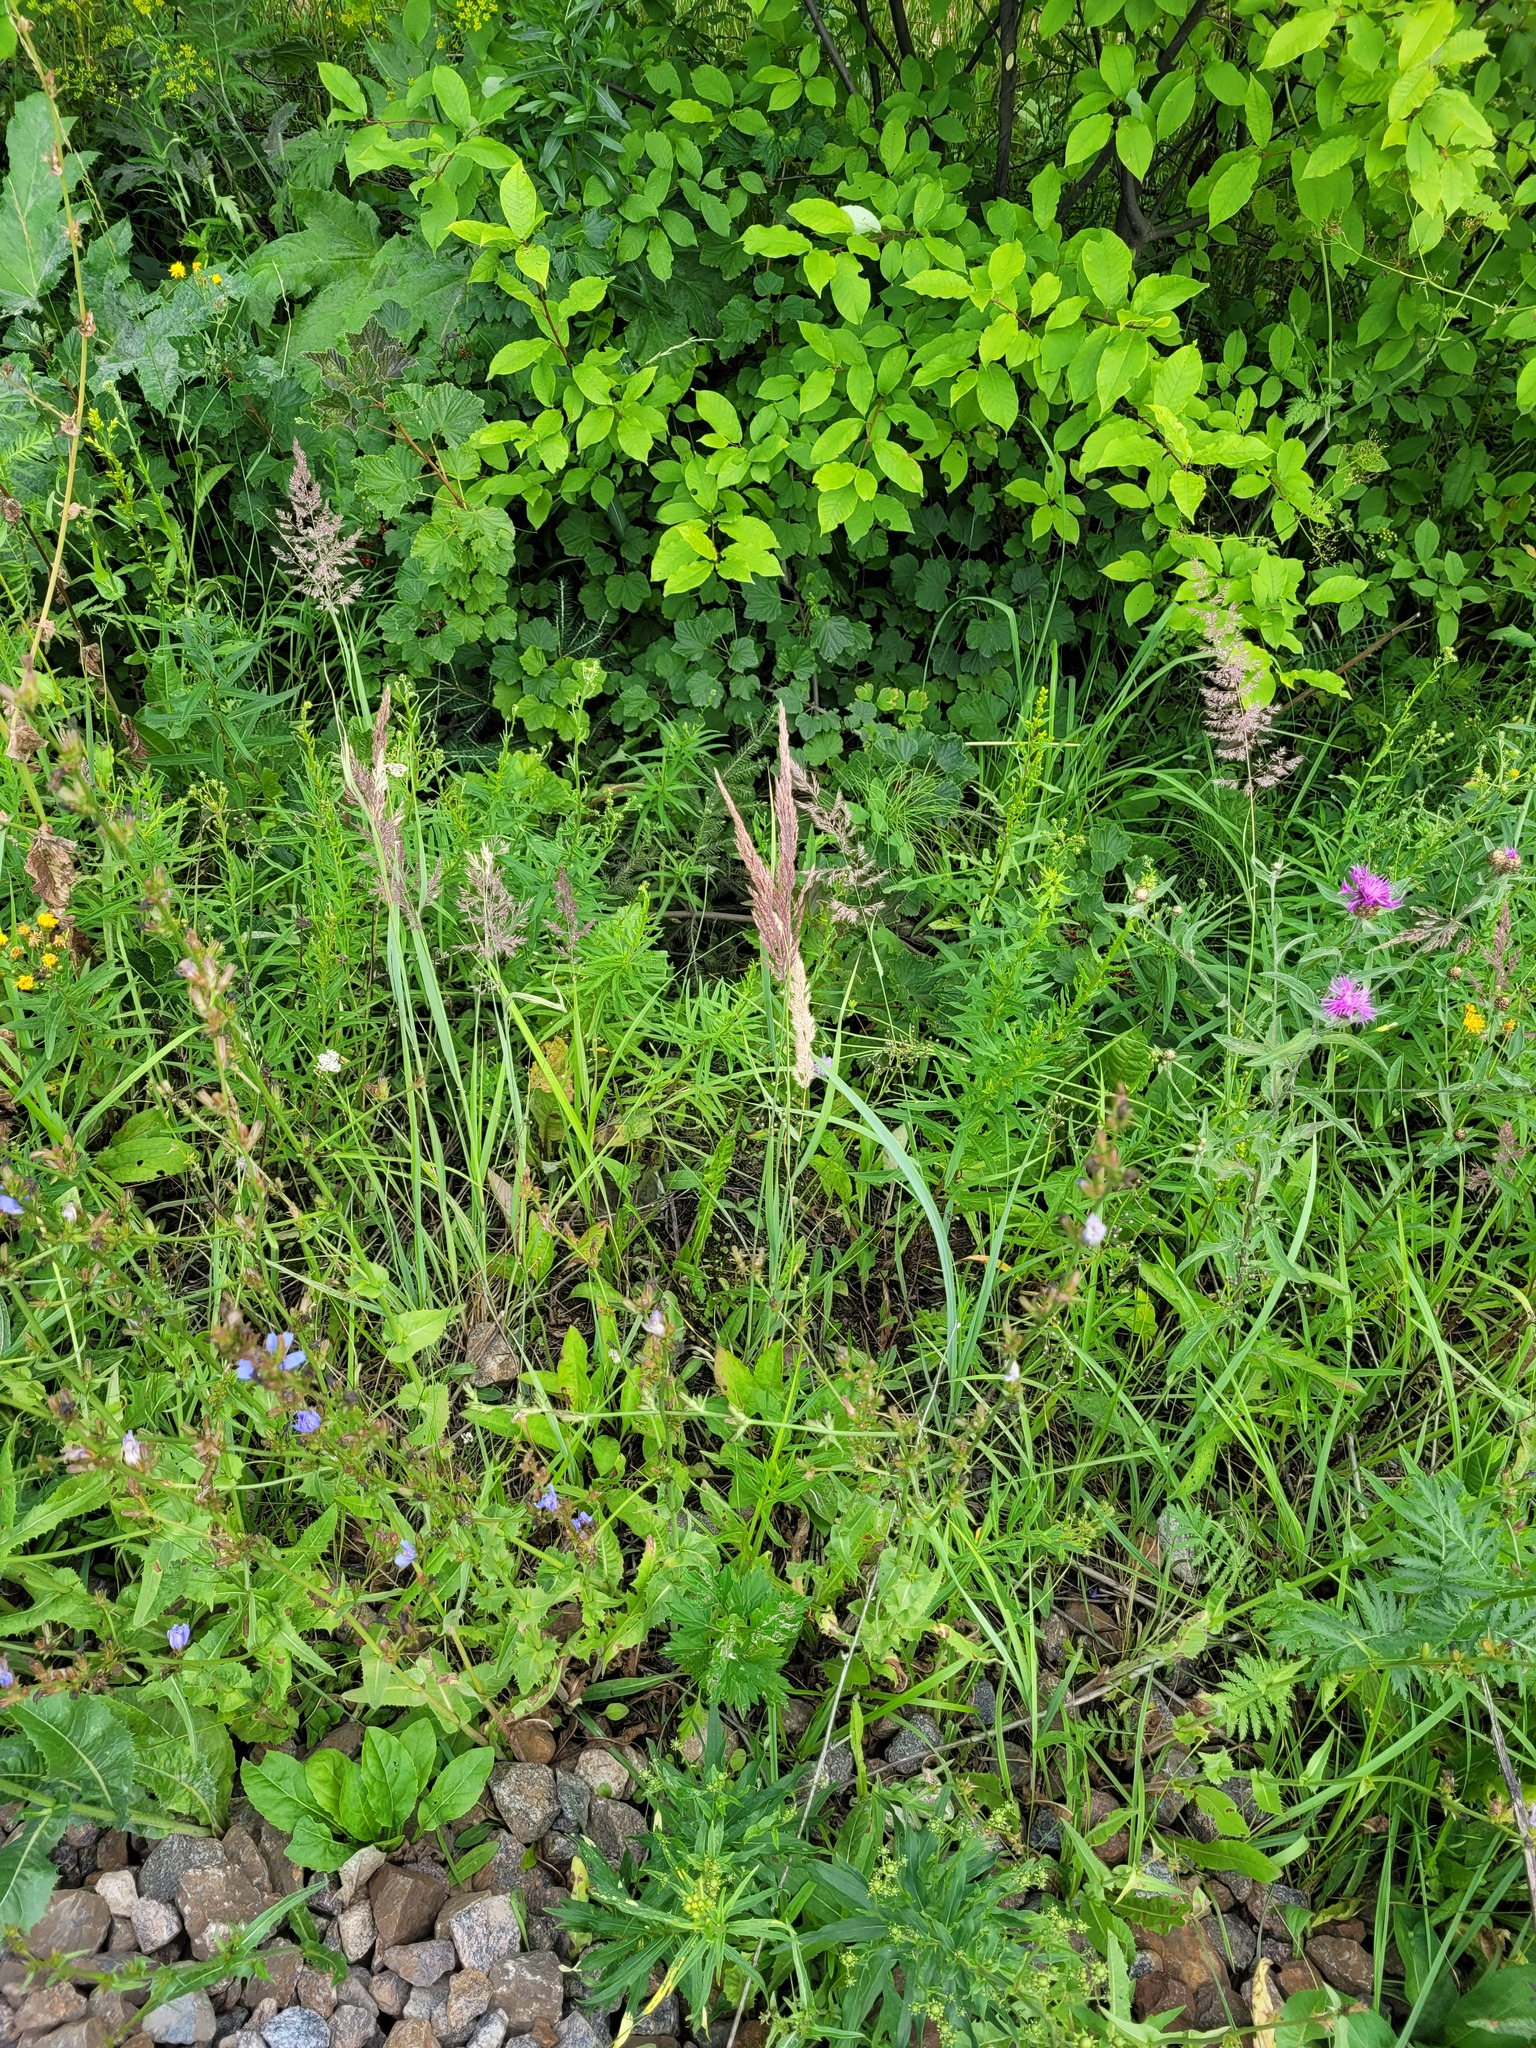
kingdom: Plantae
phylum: Tracheophyta
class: Liliopsida
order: Poales
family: Poaceae
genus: Calamagrostis
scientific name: Calamagrostis epigejos
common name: Wood small-reed
